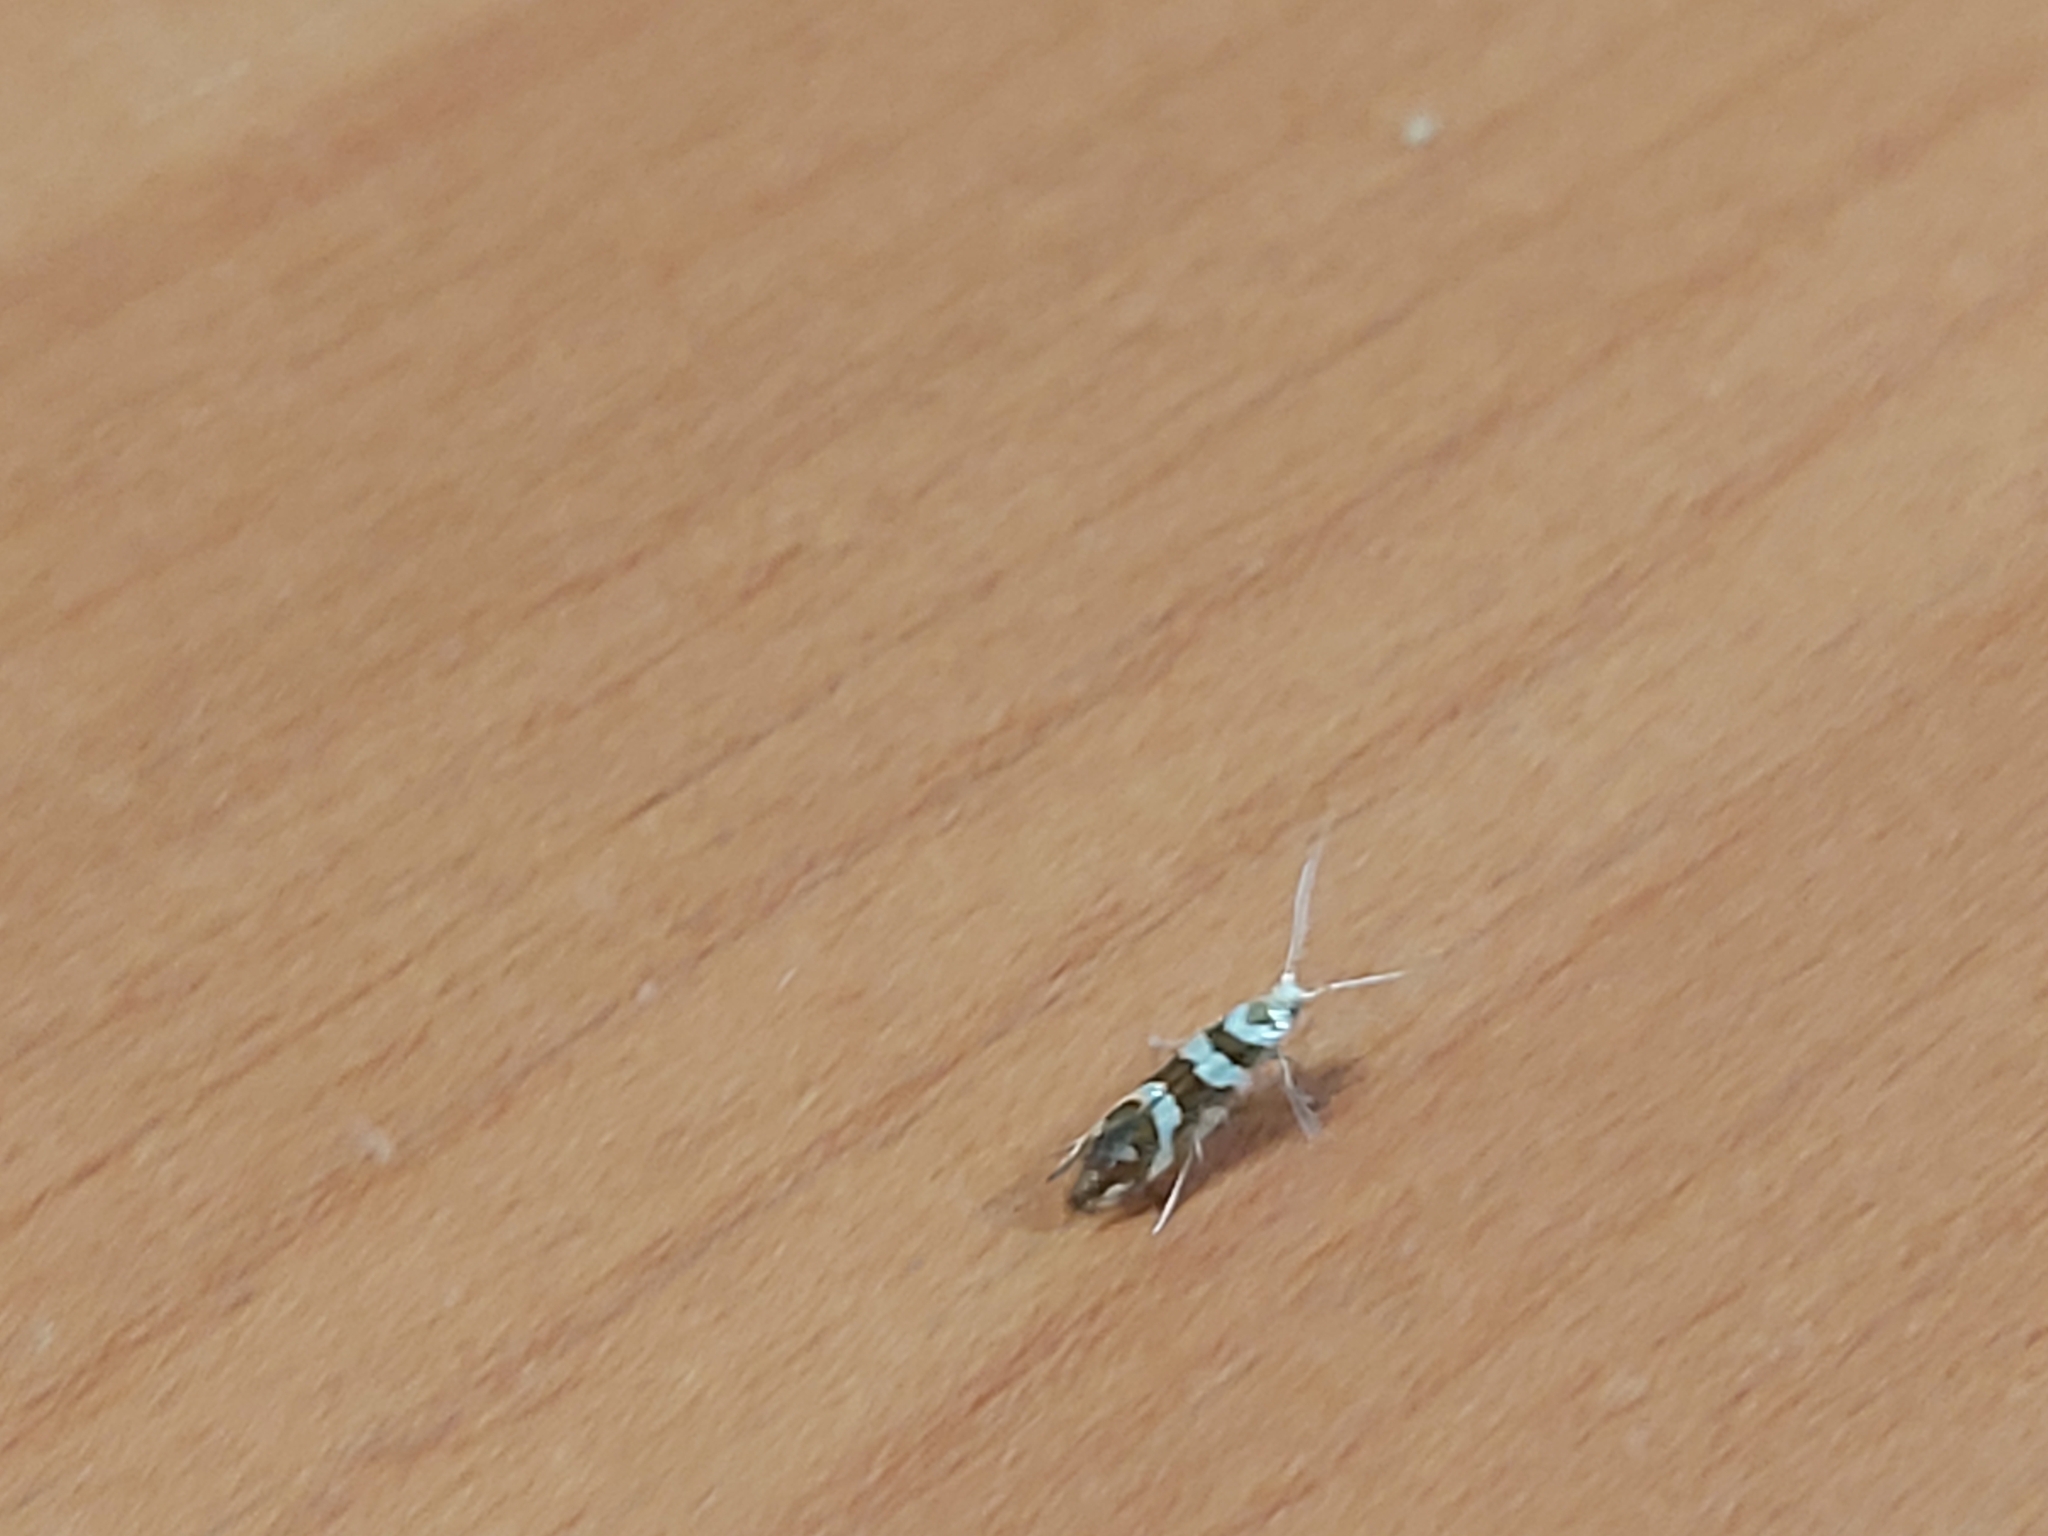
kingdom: Animalia
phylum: Arthropoda
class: Insecta
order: Lepidoptera
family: Argyresthiidae
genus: Argyresthia
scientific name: Argyresthia goedartella
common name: Golden argent
